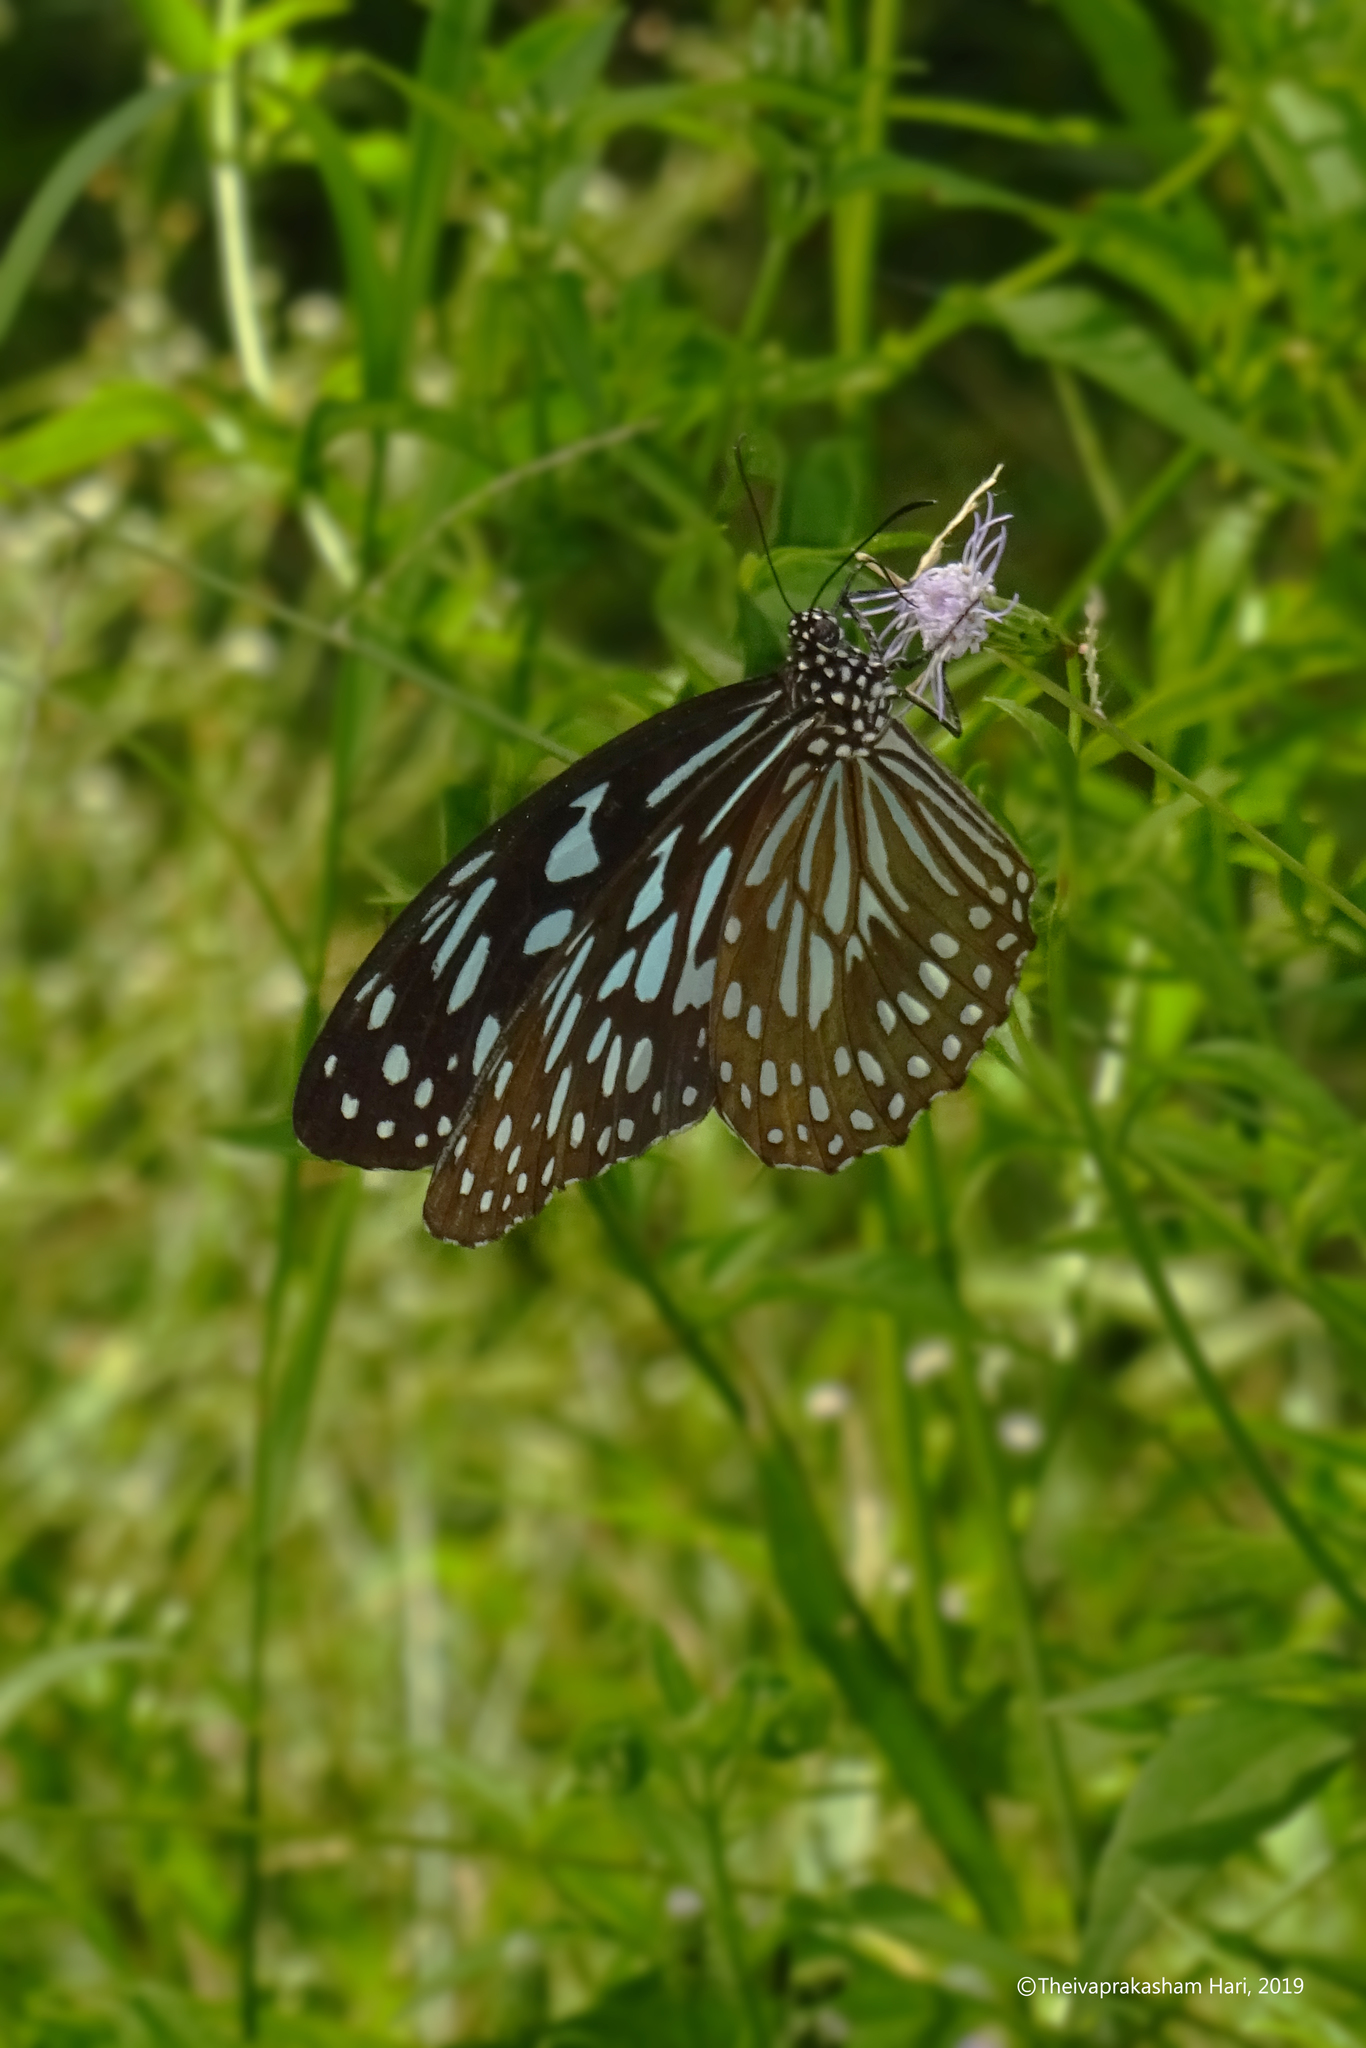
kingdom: Animalia
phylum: Arthropoda
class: Insecta
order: Lepidoptera
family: Nymphalidae
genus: Tirumala
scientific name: Tirumala septentrionis
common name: Dark blue tiger butterfly
